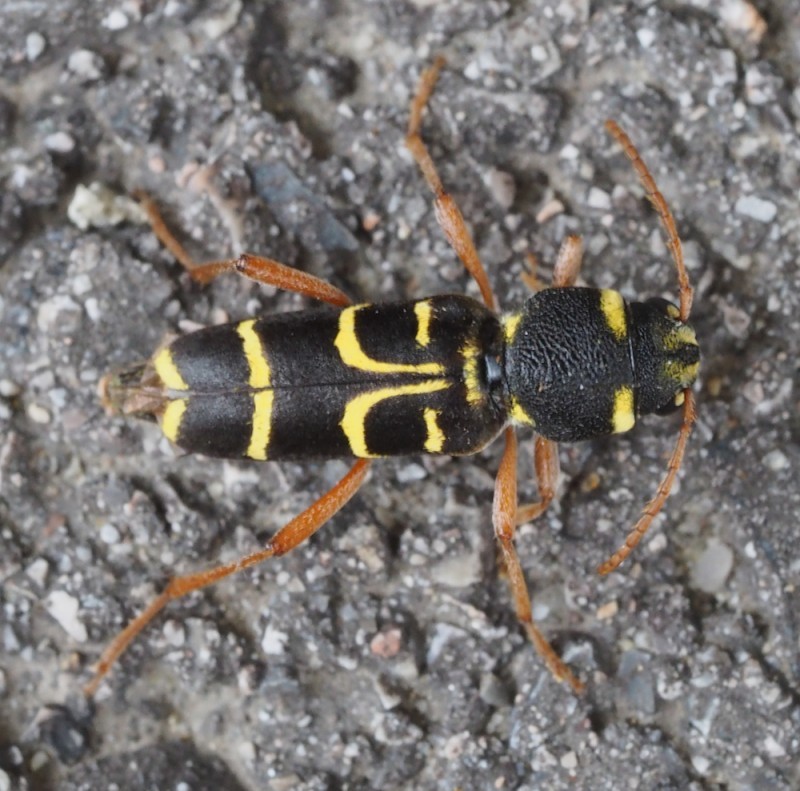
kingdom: Animalia
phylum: Arthropoda
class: Insecta
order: Coleoptera
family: Cerambycidae
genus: Xylotrechus
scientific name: Xylotrechus arvicola
